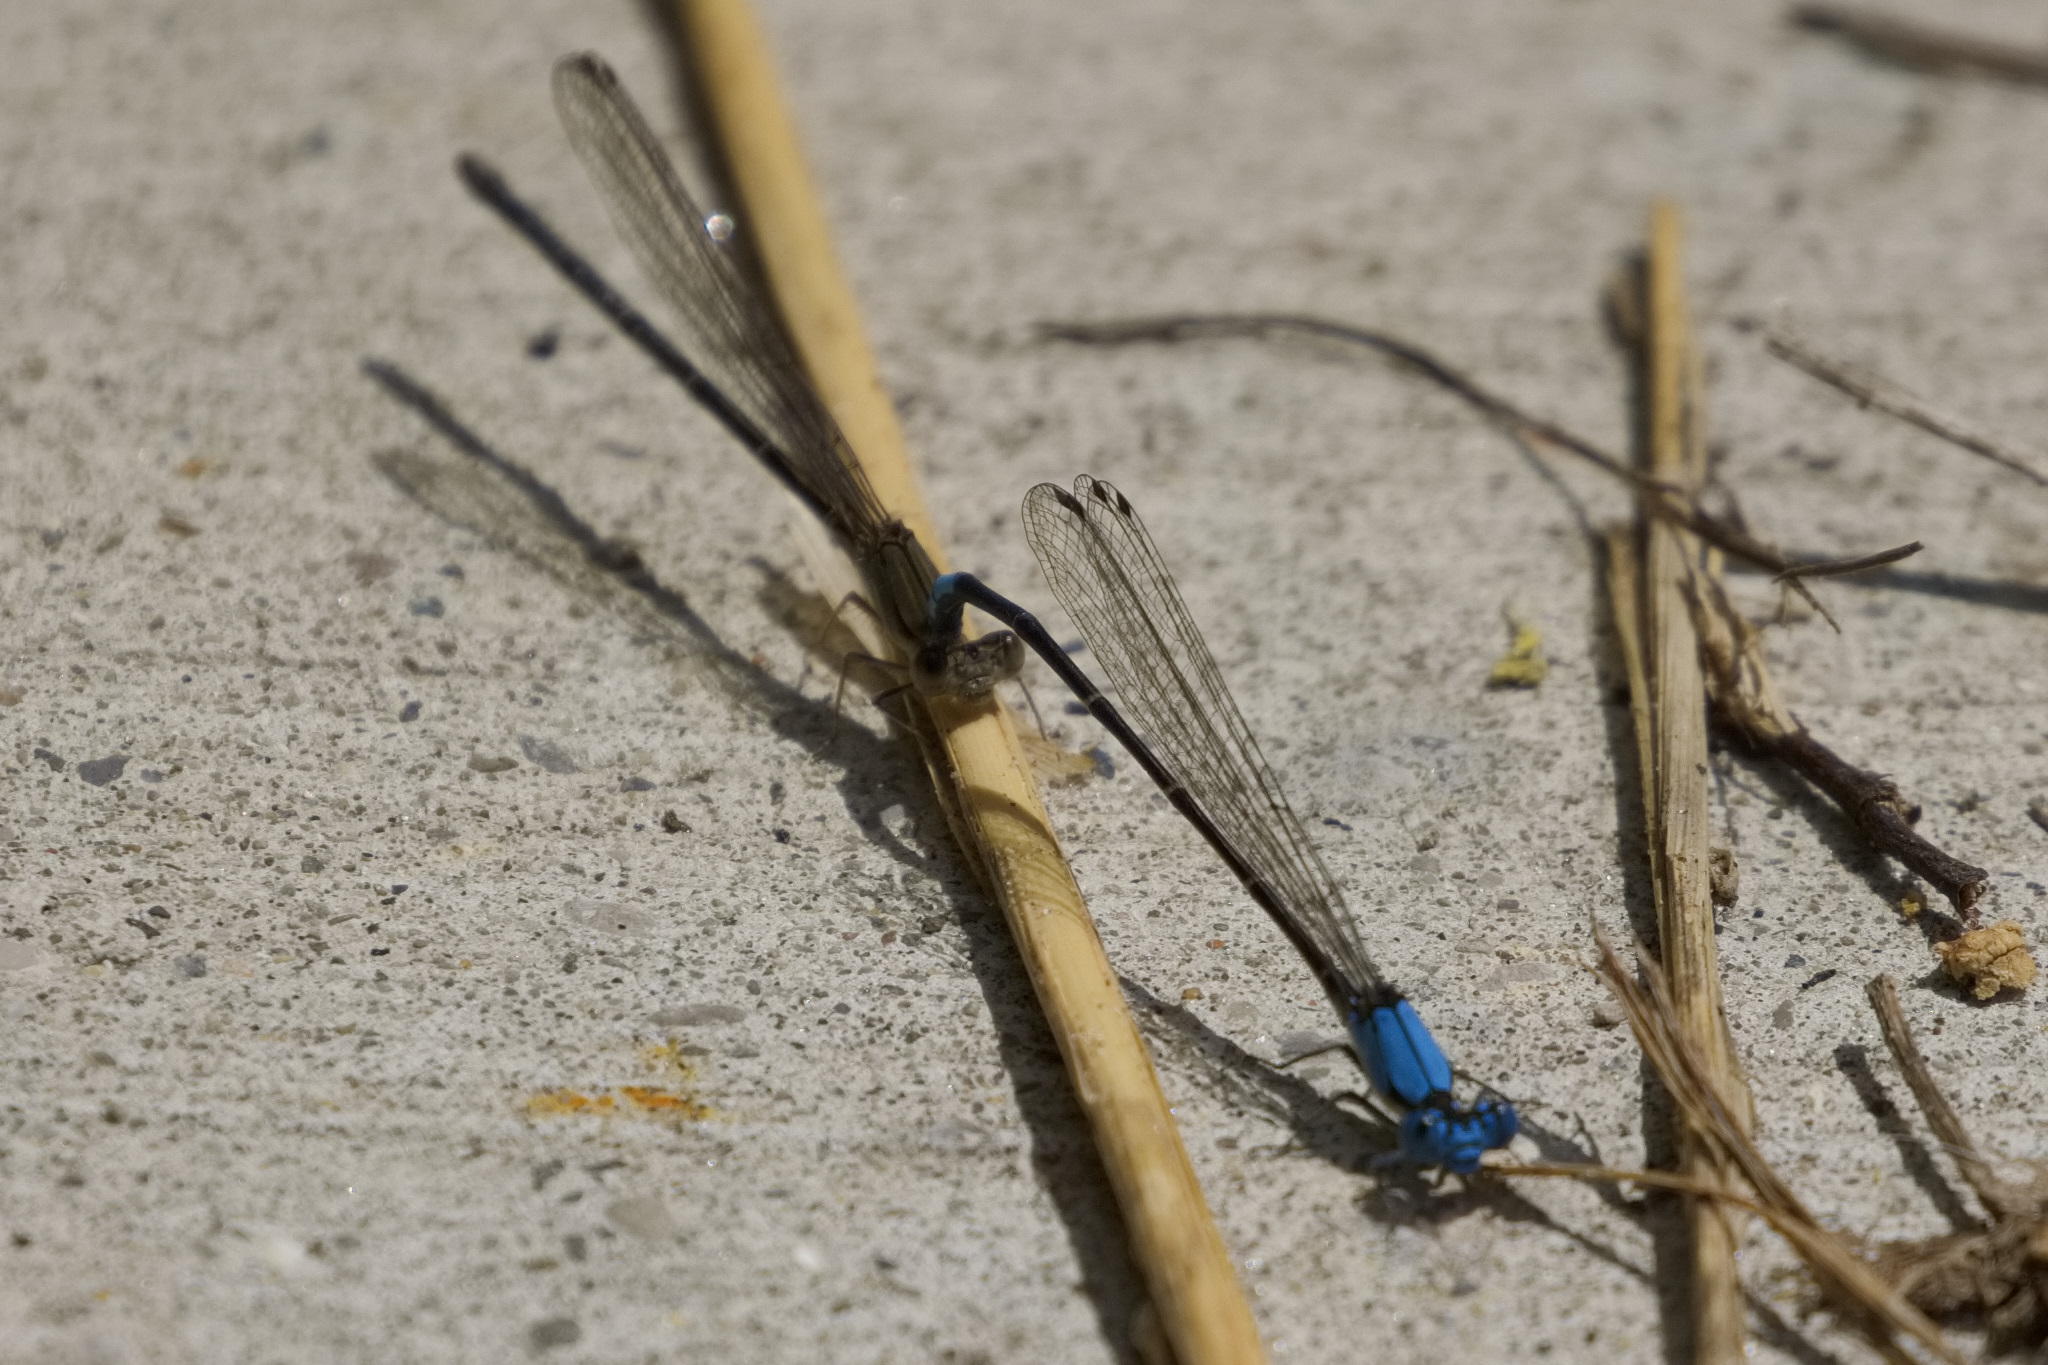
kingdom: Animalia
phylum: Arthropoda
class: Insecta
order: Odonata
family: Coenagrionidae
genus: Argia
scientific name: Argia apicalis
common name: Blue-fronted dancer
